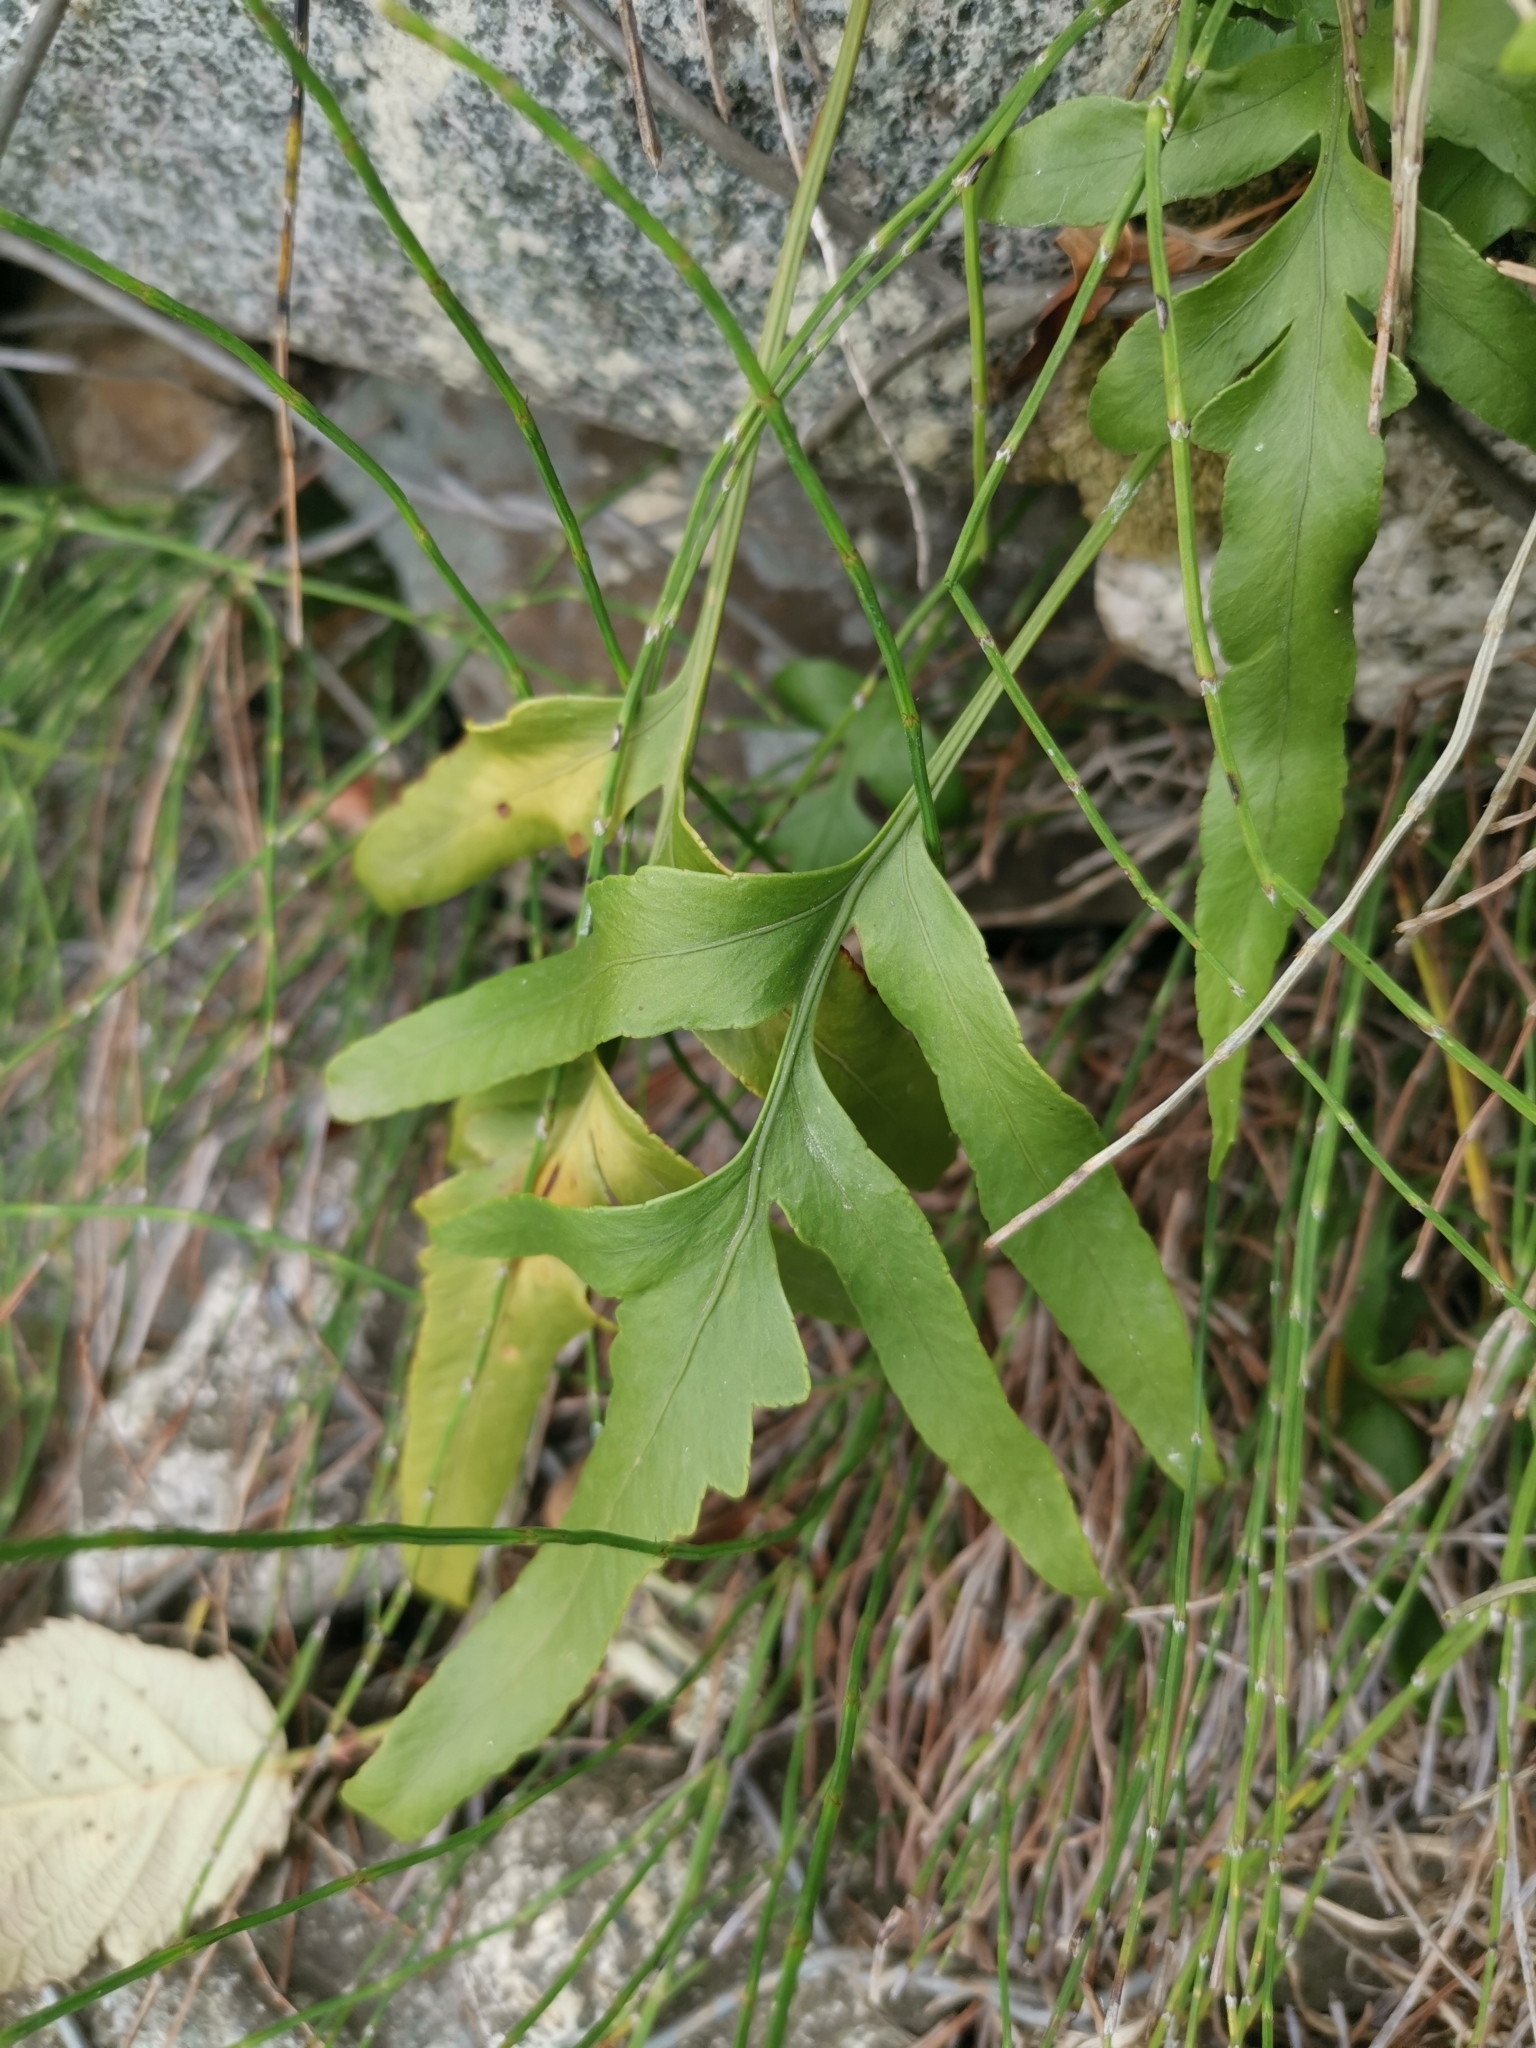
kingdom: Plantae
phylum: Tracheophyta
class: Polypodiopsida
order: Polypodiales
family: Polypodiaceae
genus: Synammia
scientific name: Synammia feuillei
